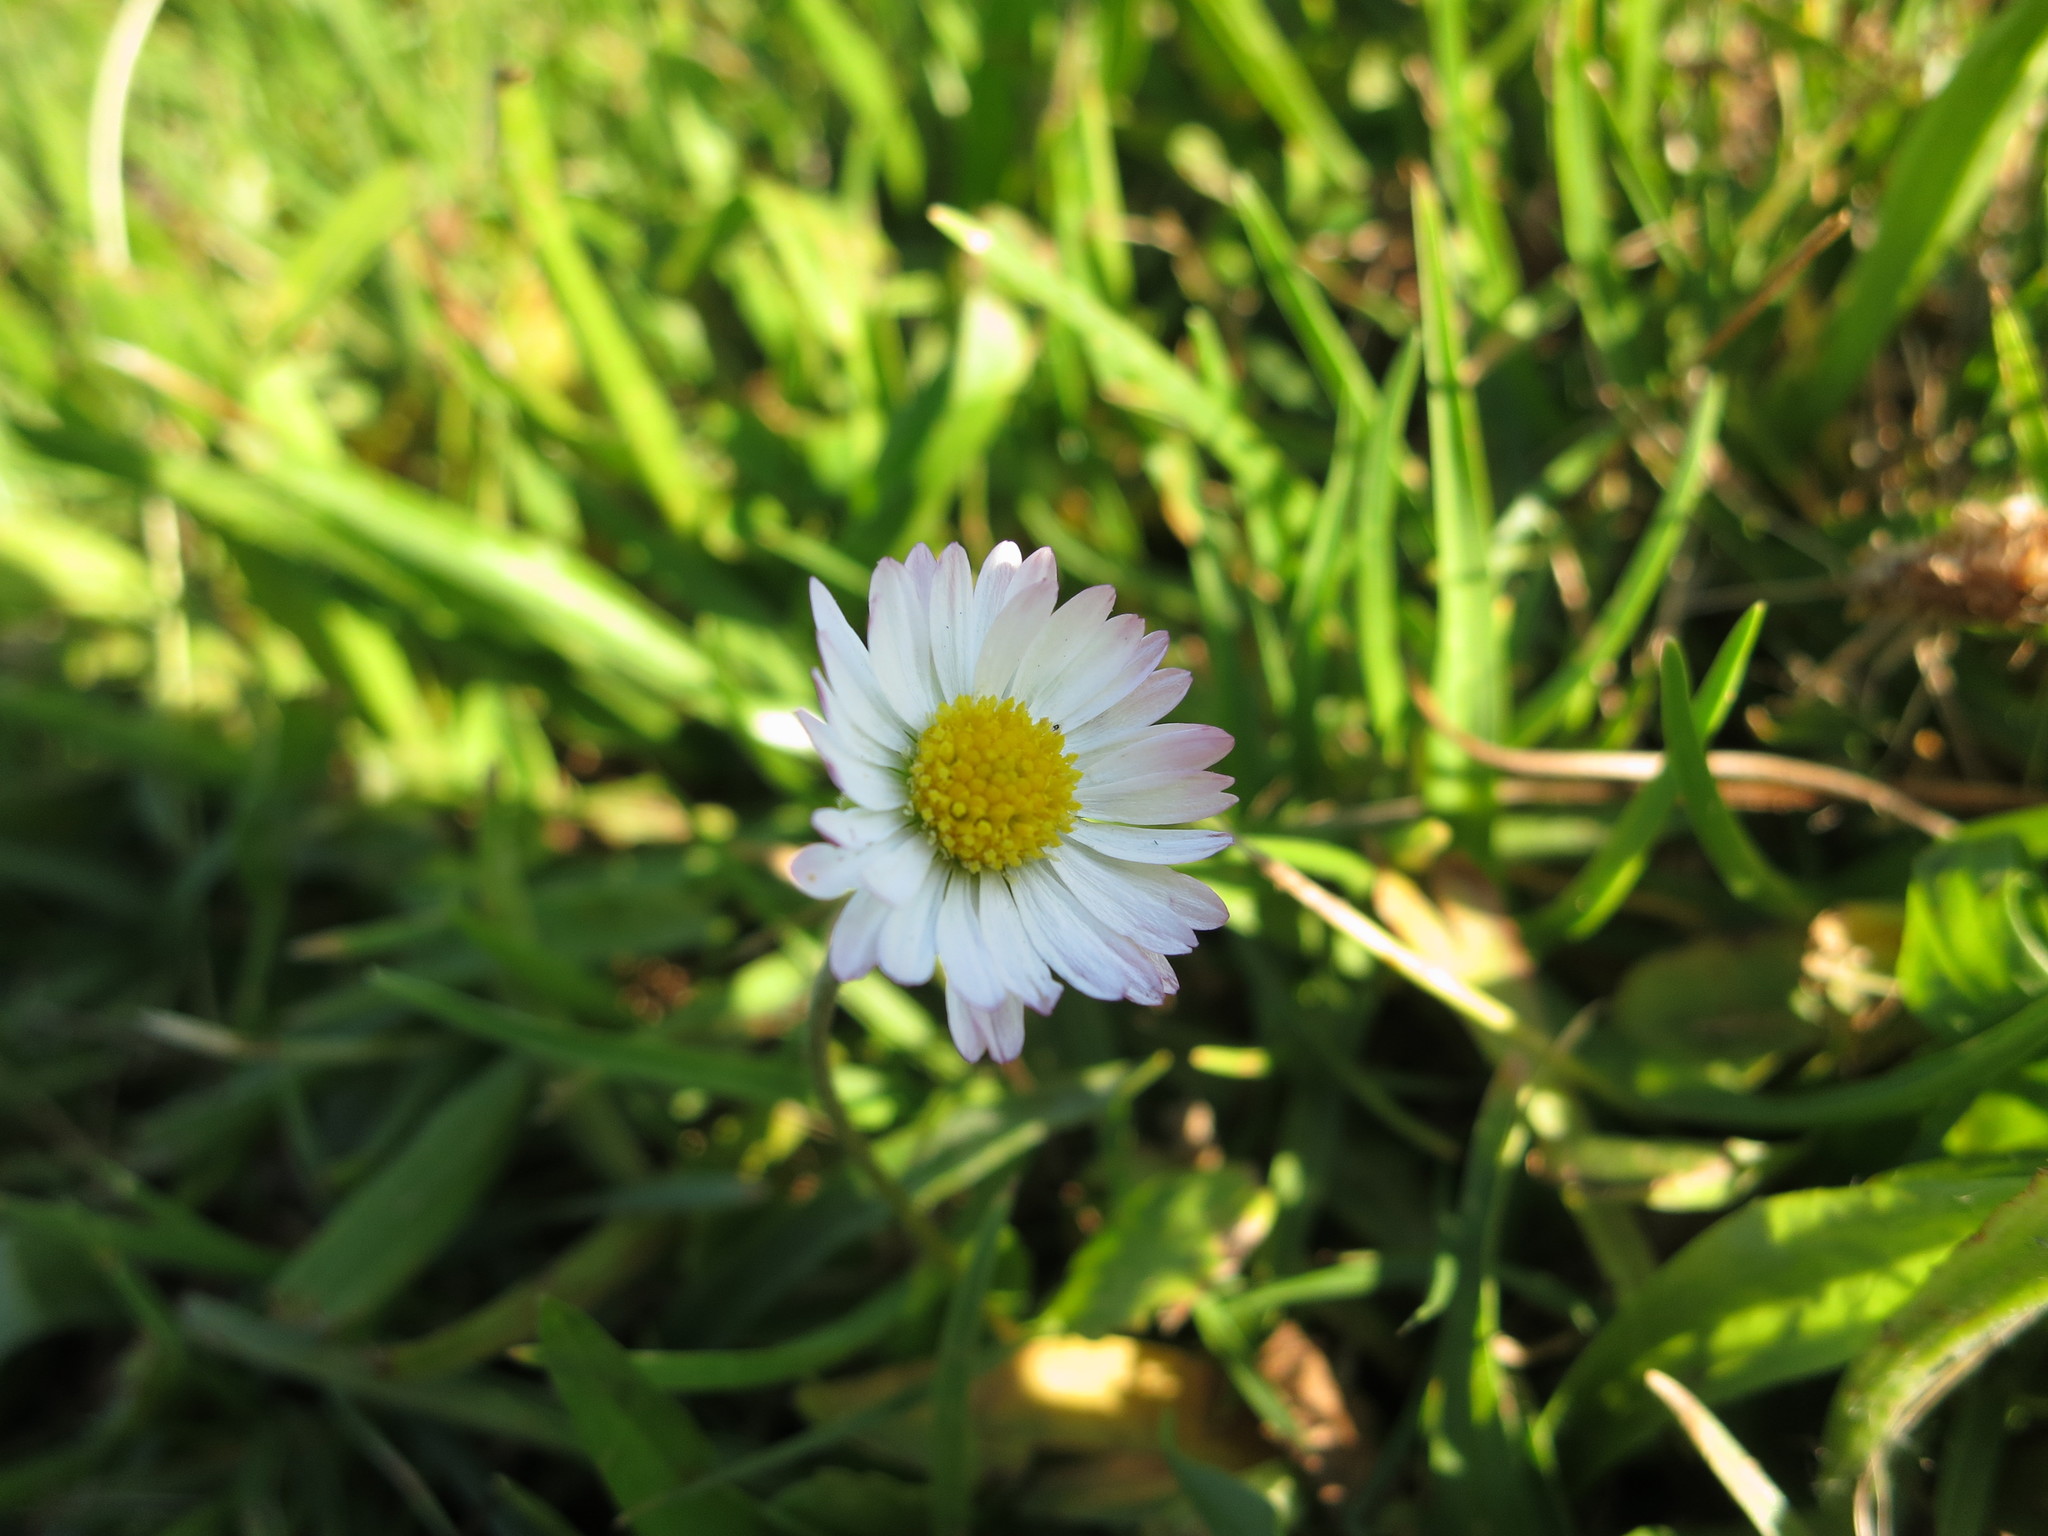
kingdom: Plantae
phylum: Tracheophyta
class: Magnoliopsida
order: Asterales
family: Asteraceae
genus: Bellis
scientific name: Bellis perennis
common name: Lawndaisy
